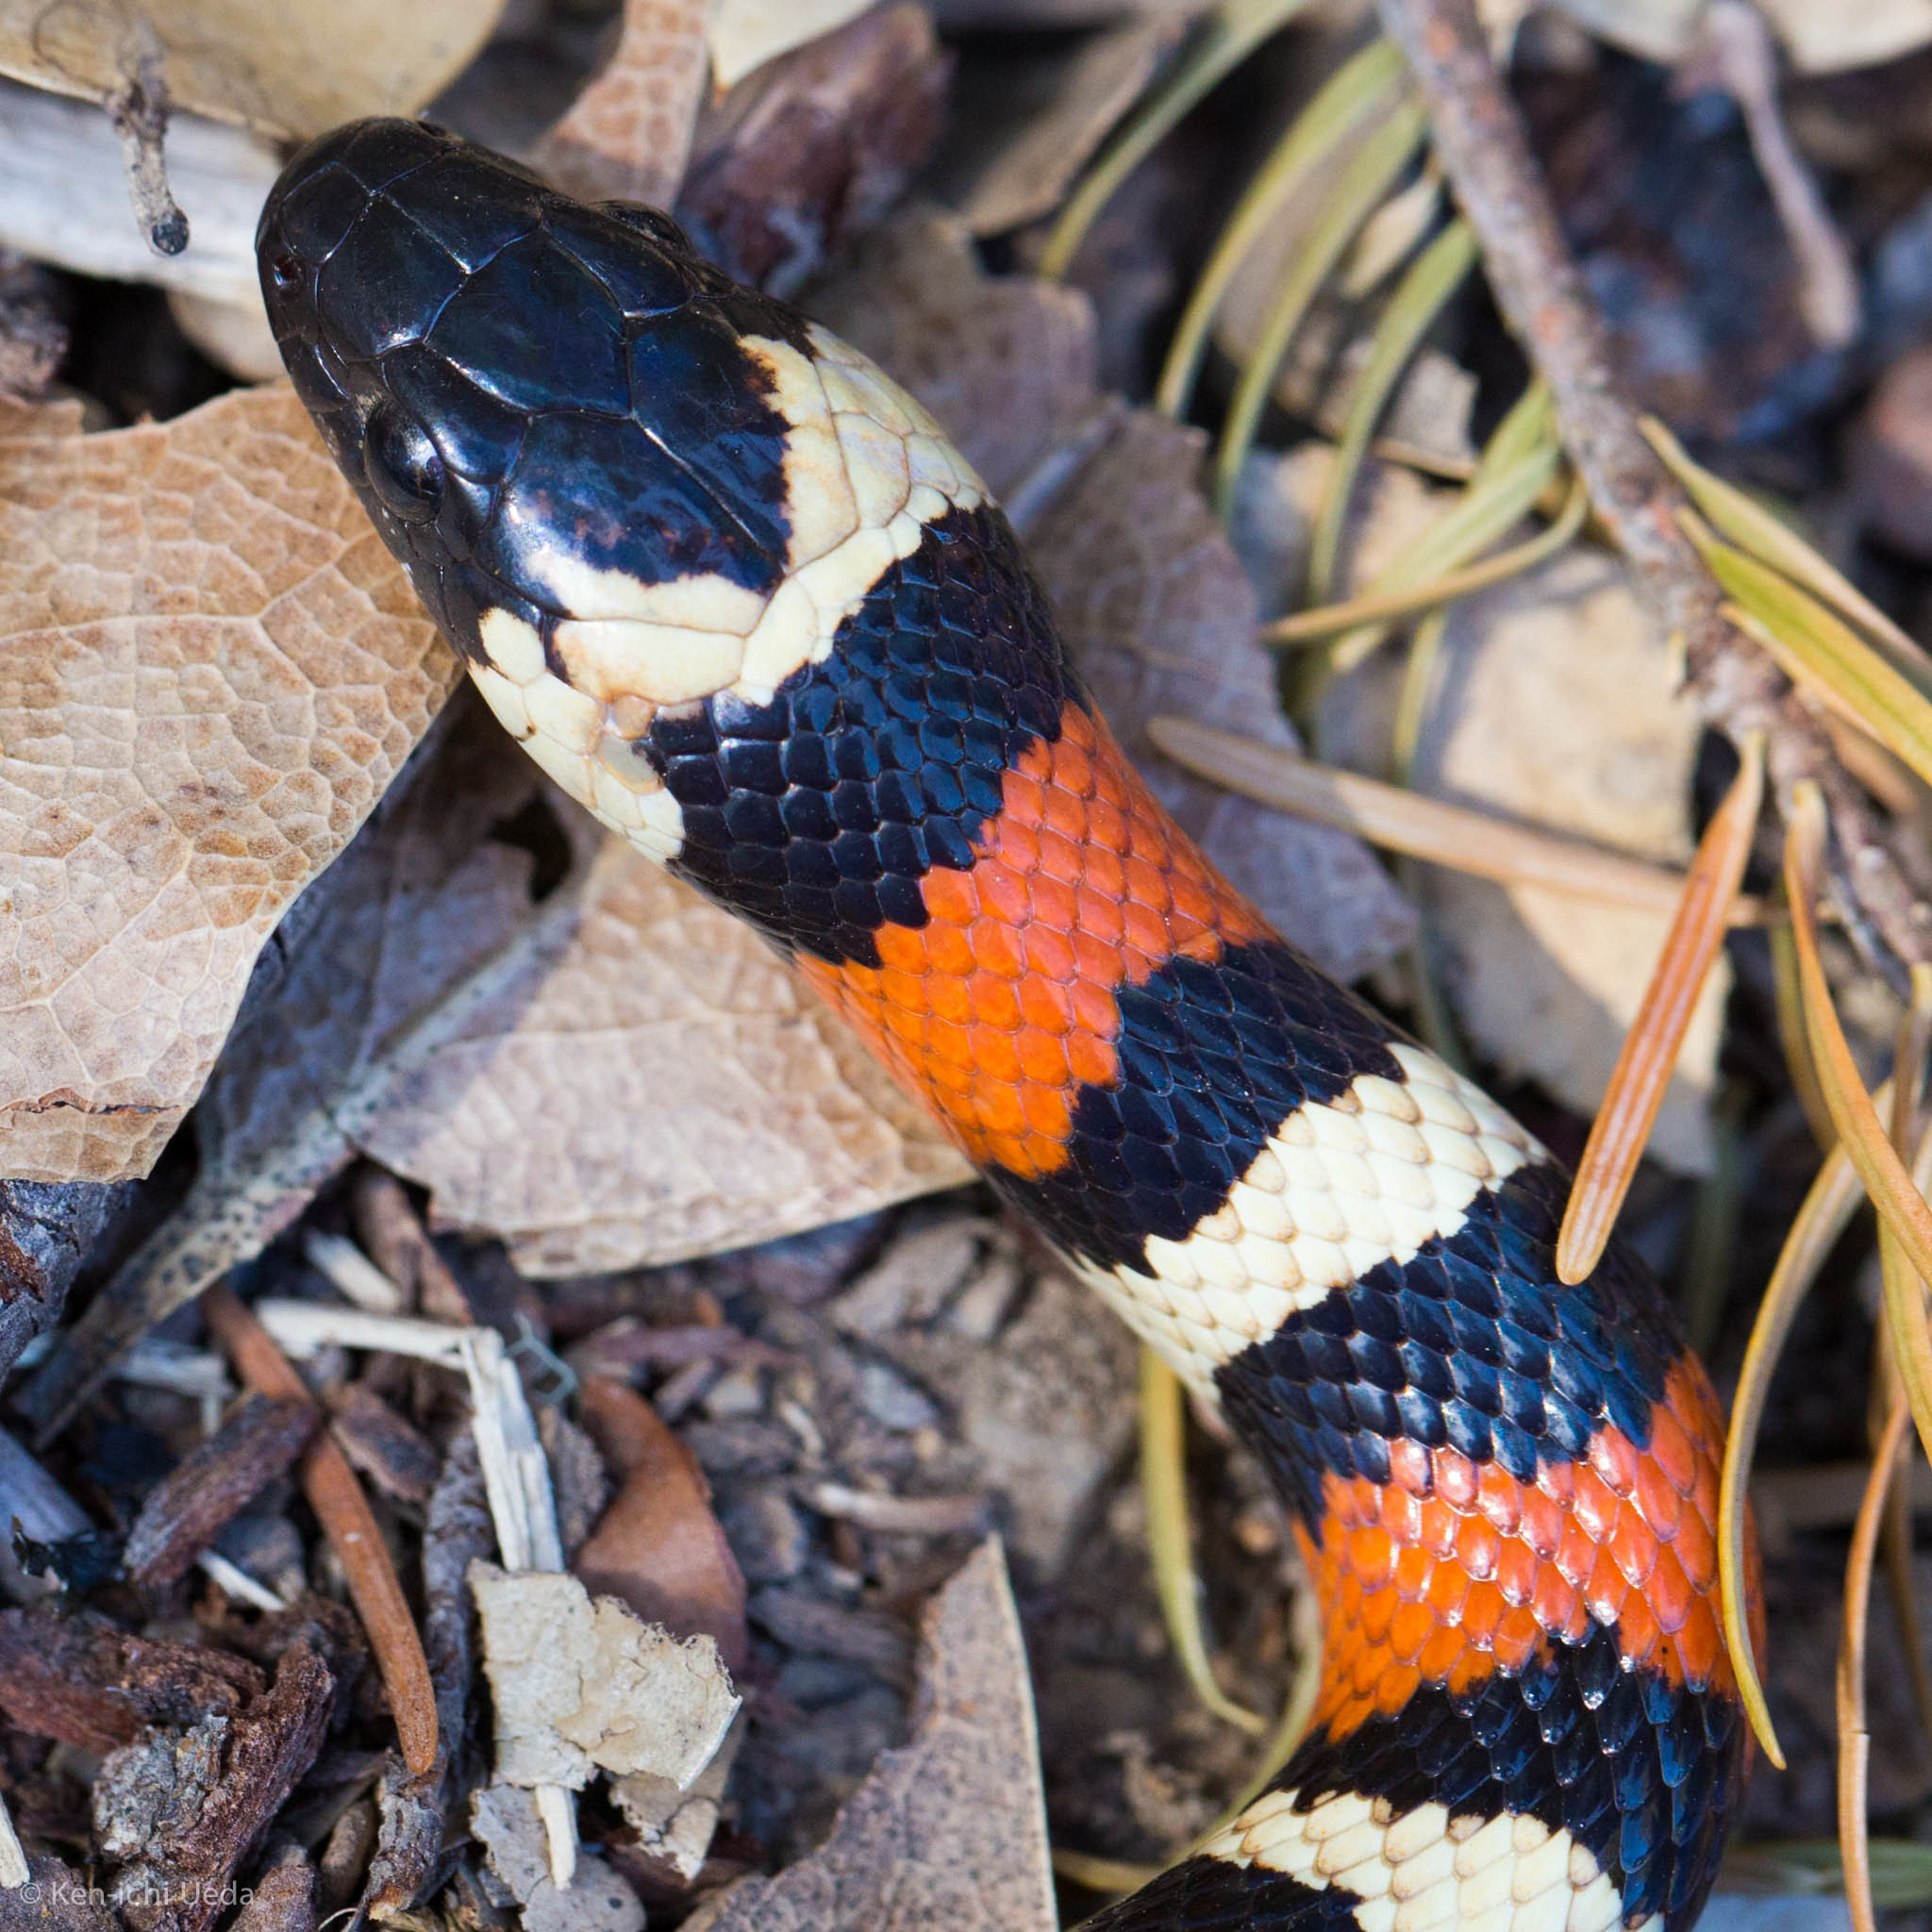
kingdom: Animalia
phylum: Chordata
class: Squamata
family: Colubridae
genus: Lampropeltis
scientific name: Lampropeltis zonata
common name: California mountain kingsnake
